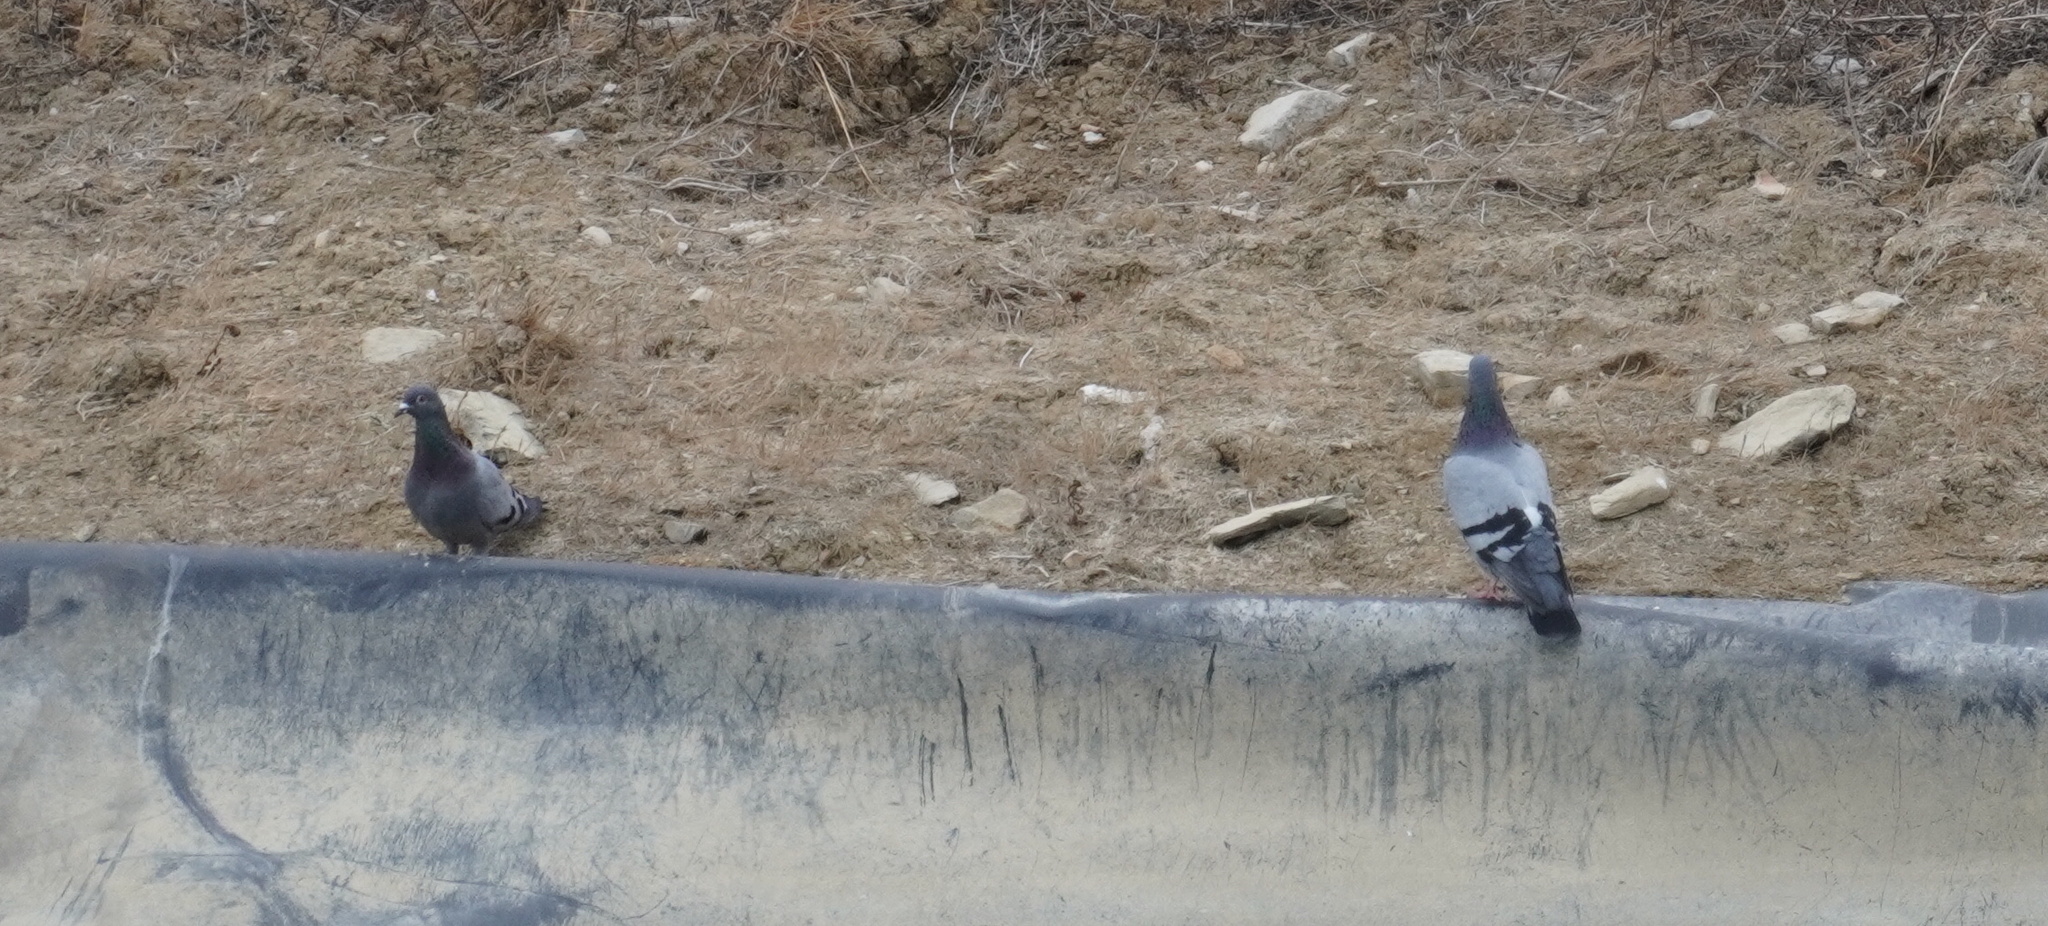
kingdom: Animalia
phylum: Chordata
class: Aves
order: Columbiformes
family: Columbidae
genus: Columba
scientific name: Columba livia
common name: Rock pigeon
